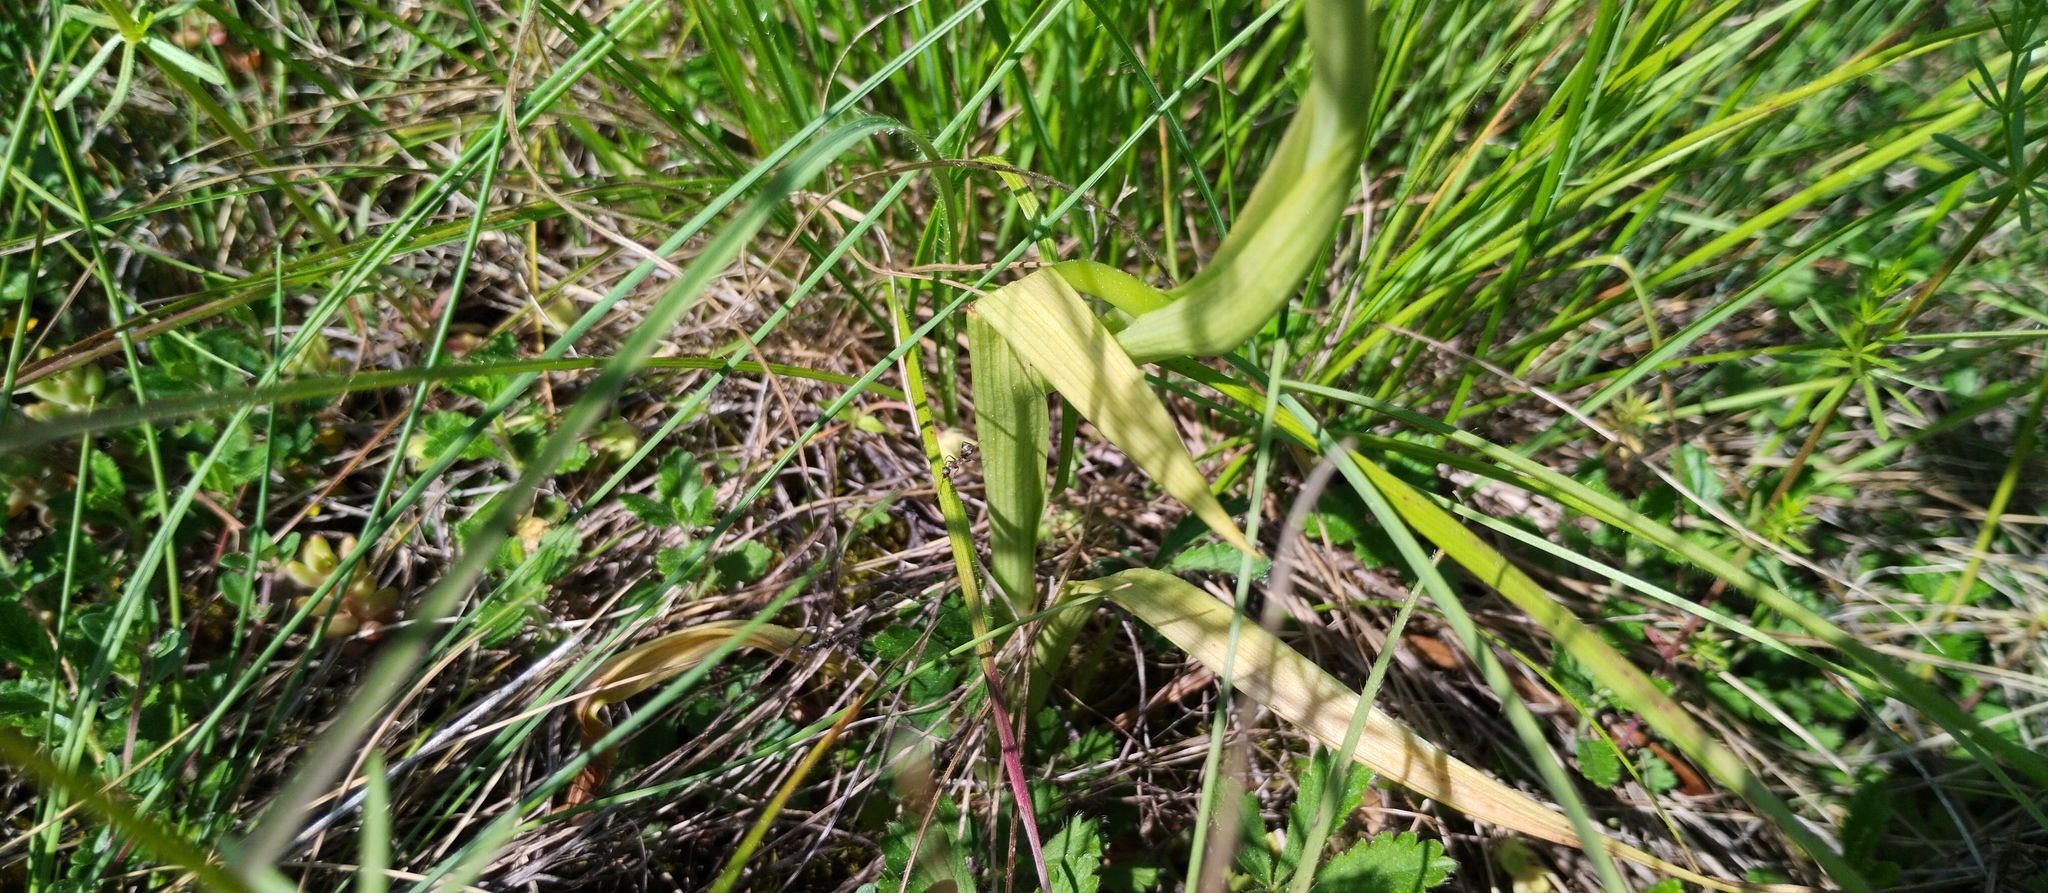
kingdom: Plantae
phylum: Tracheophyta
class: Liliopsida
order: Asparagales
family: Orchidaceae
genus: Anacamptis
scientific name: Anacamptis pyramidalis
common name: Pyramidal orchid
